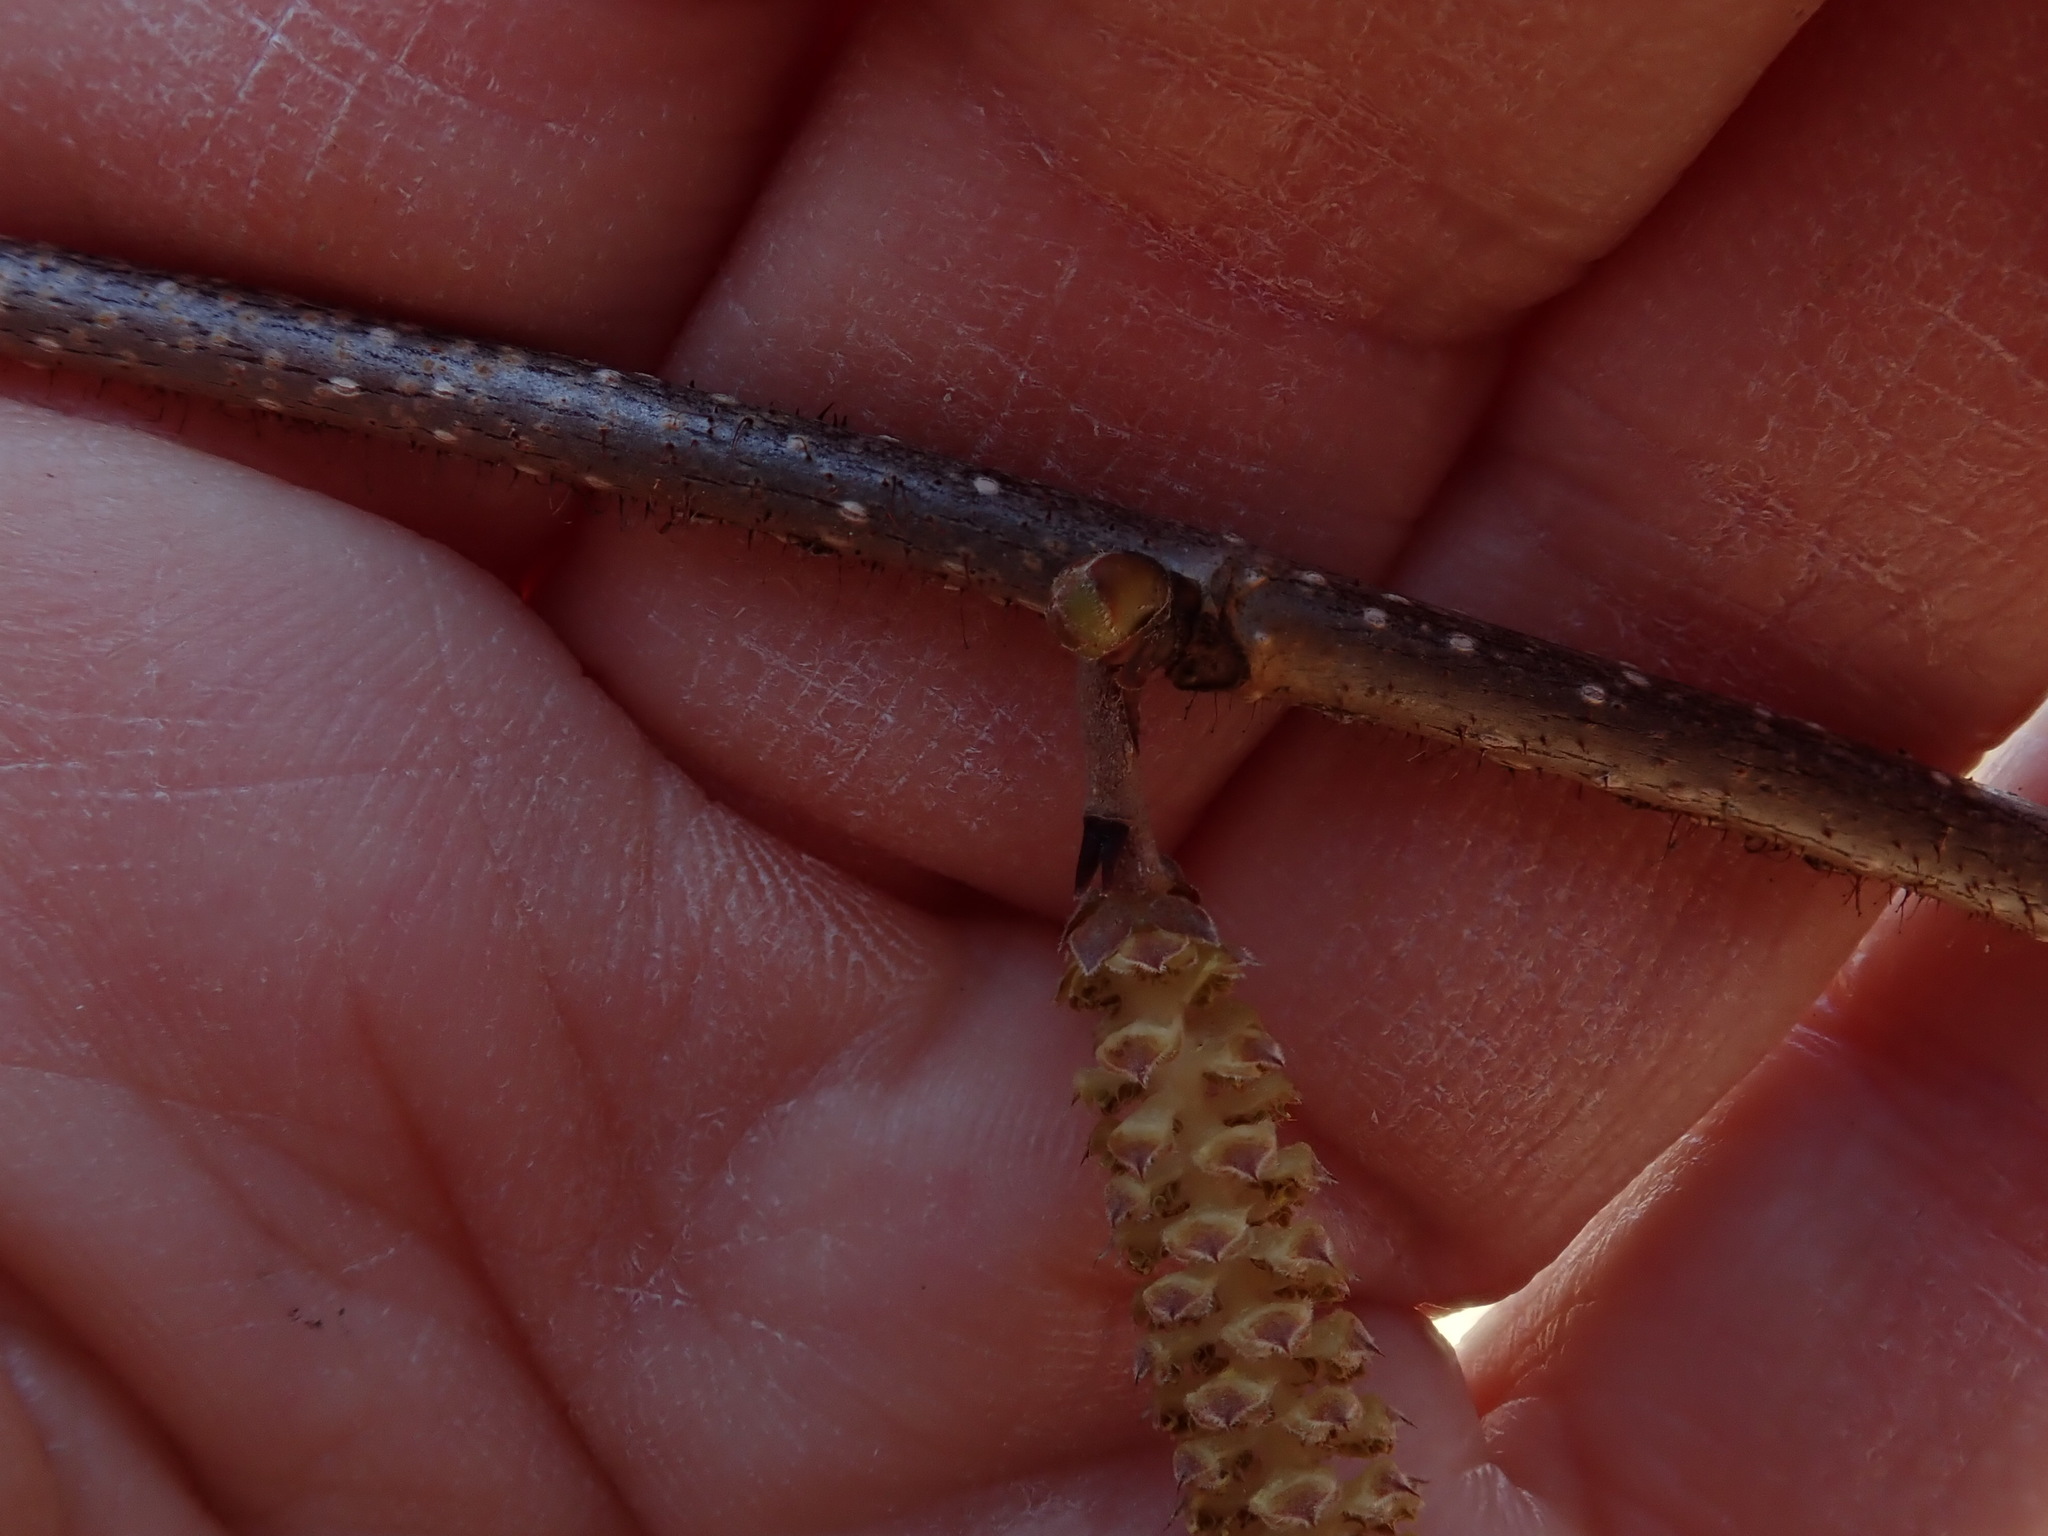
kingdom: Plantae
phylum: Tracheophyta
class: Magnoliopsida
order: Fagales
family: Betulaceae
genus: Corylus
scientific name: Corylus americana
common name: American hazel
